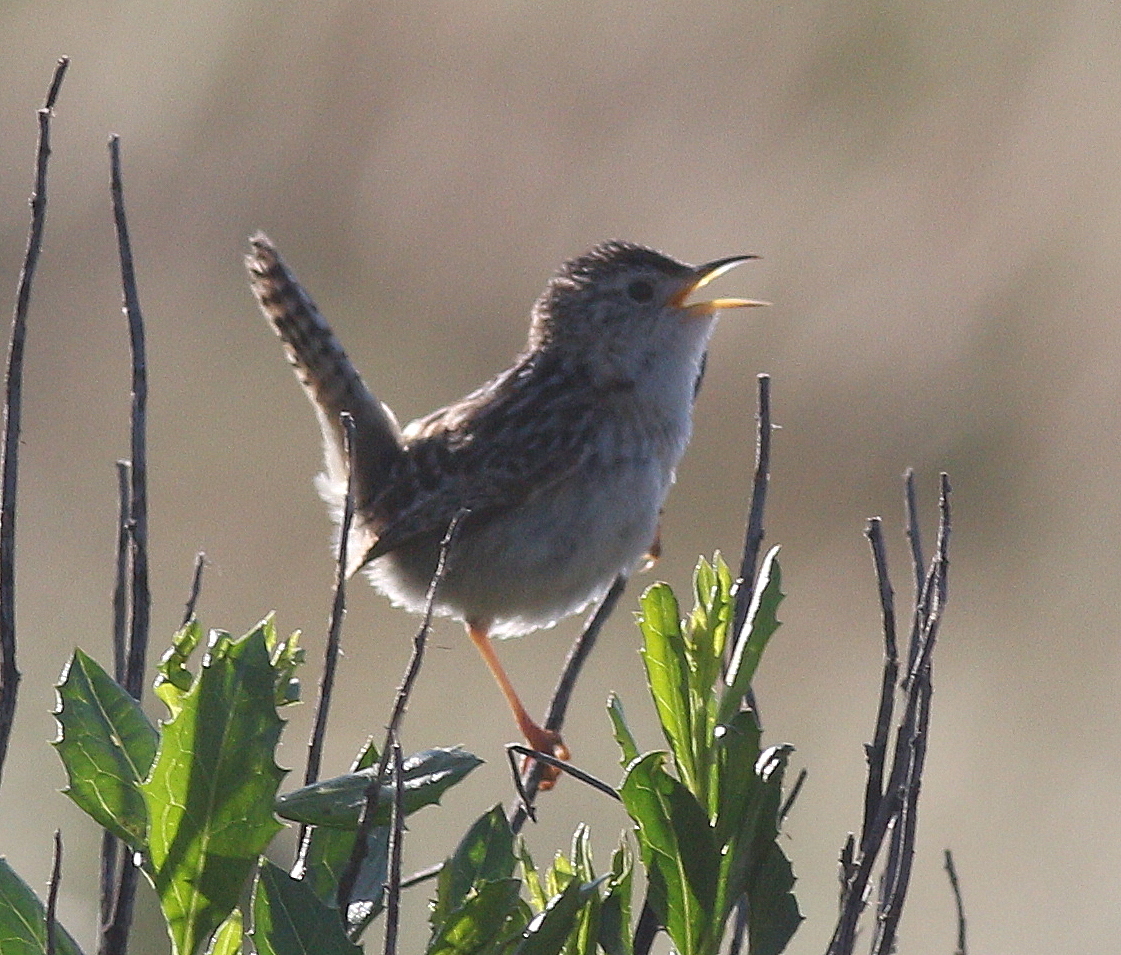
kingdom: Animalia
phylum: Chordata
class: Aves
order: Passeriformes
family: Troglodytidae
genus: Cistothorus
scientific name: Cistothorus platensis
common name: Sedge wren
